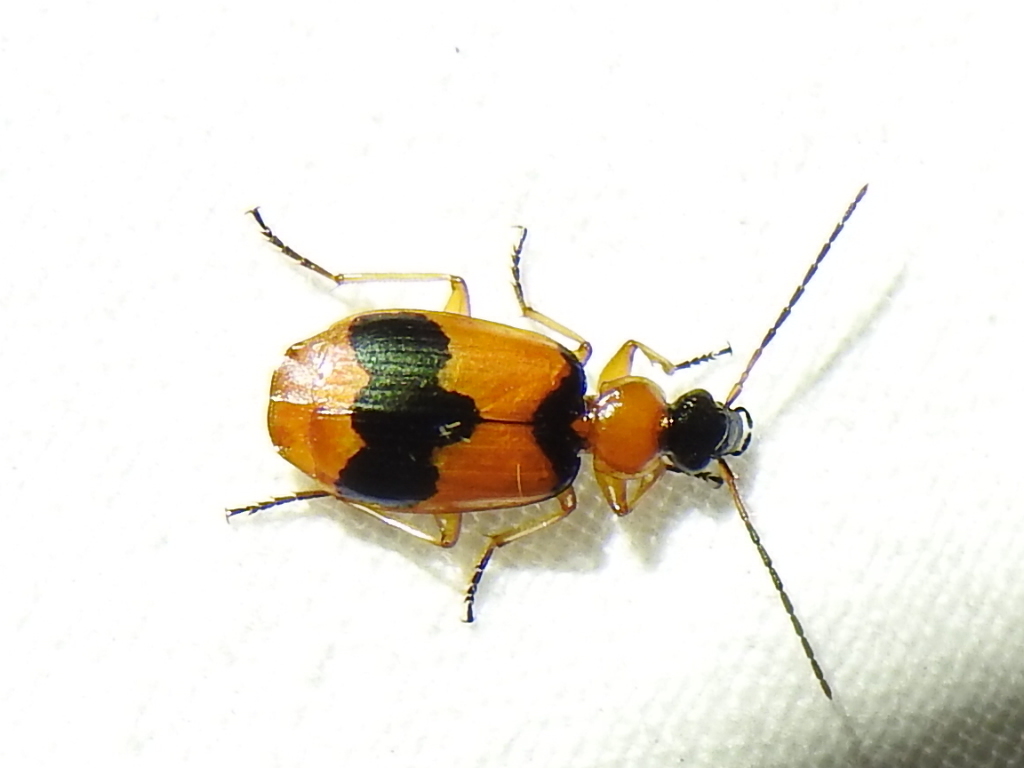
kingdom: Animalia
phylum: Arthropoda
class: Insecta
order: Coleoptera
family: Carabidae
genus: Lebia
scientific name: Lebia pulchella
